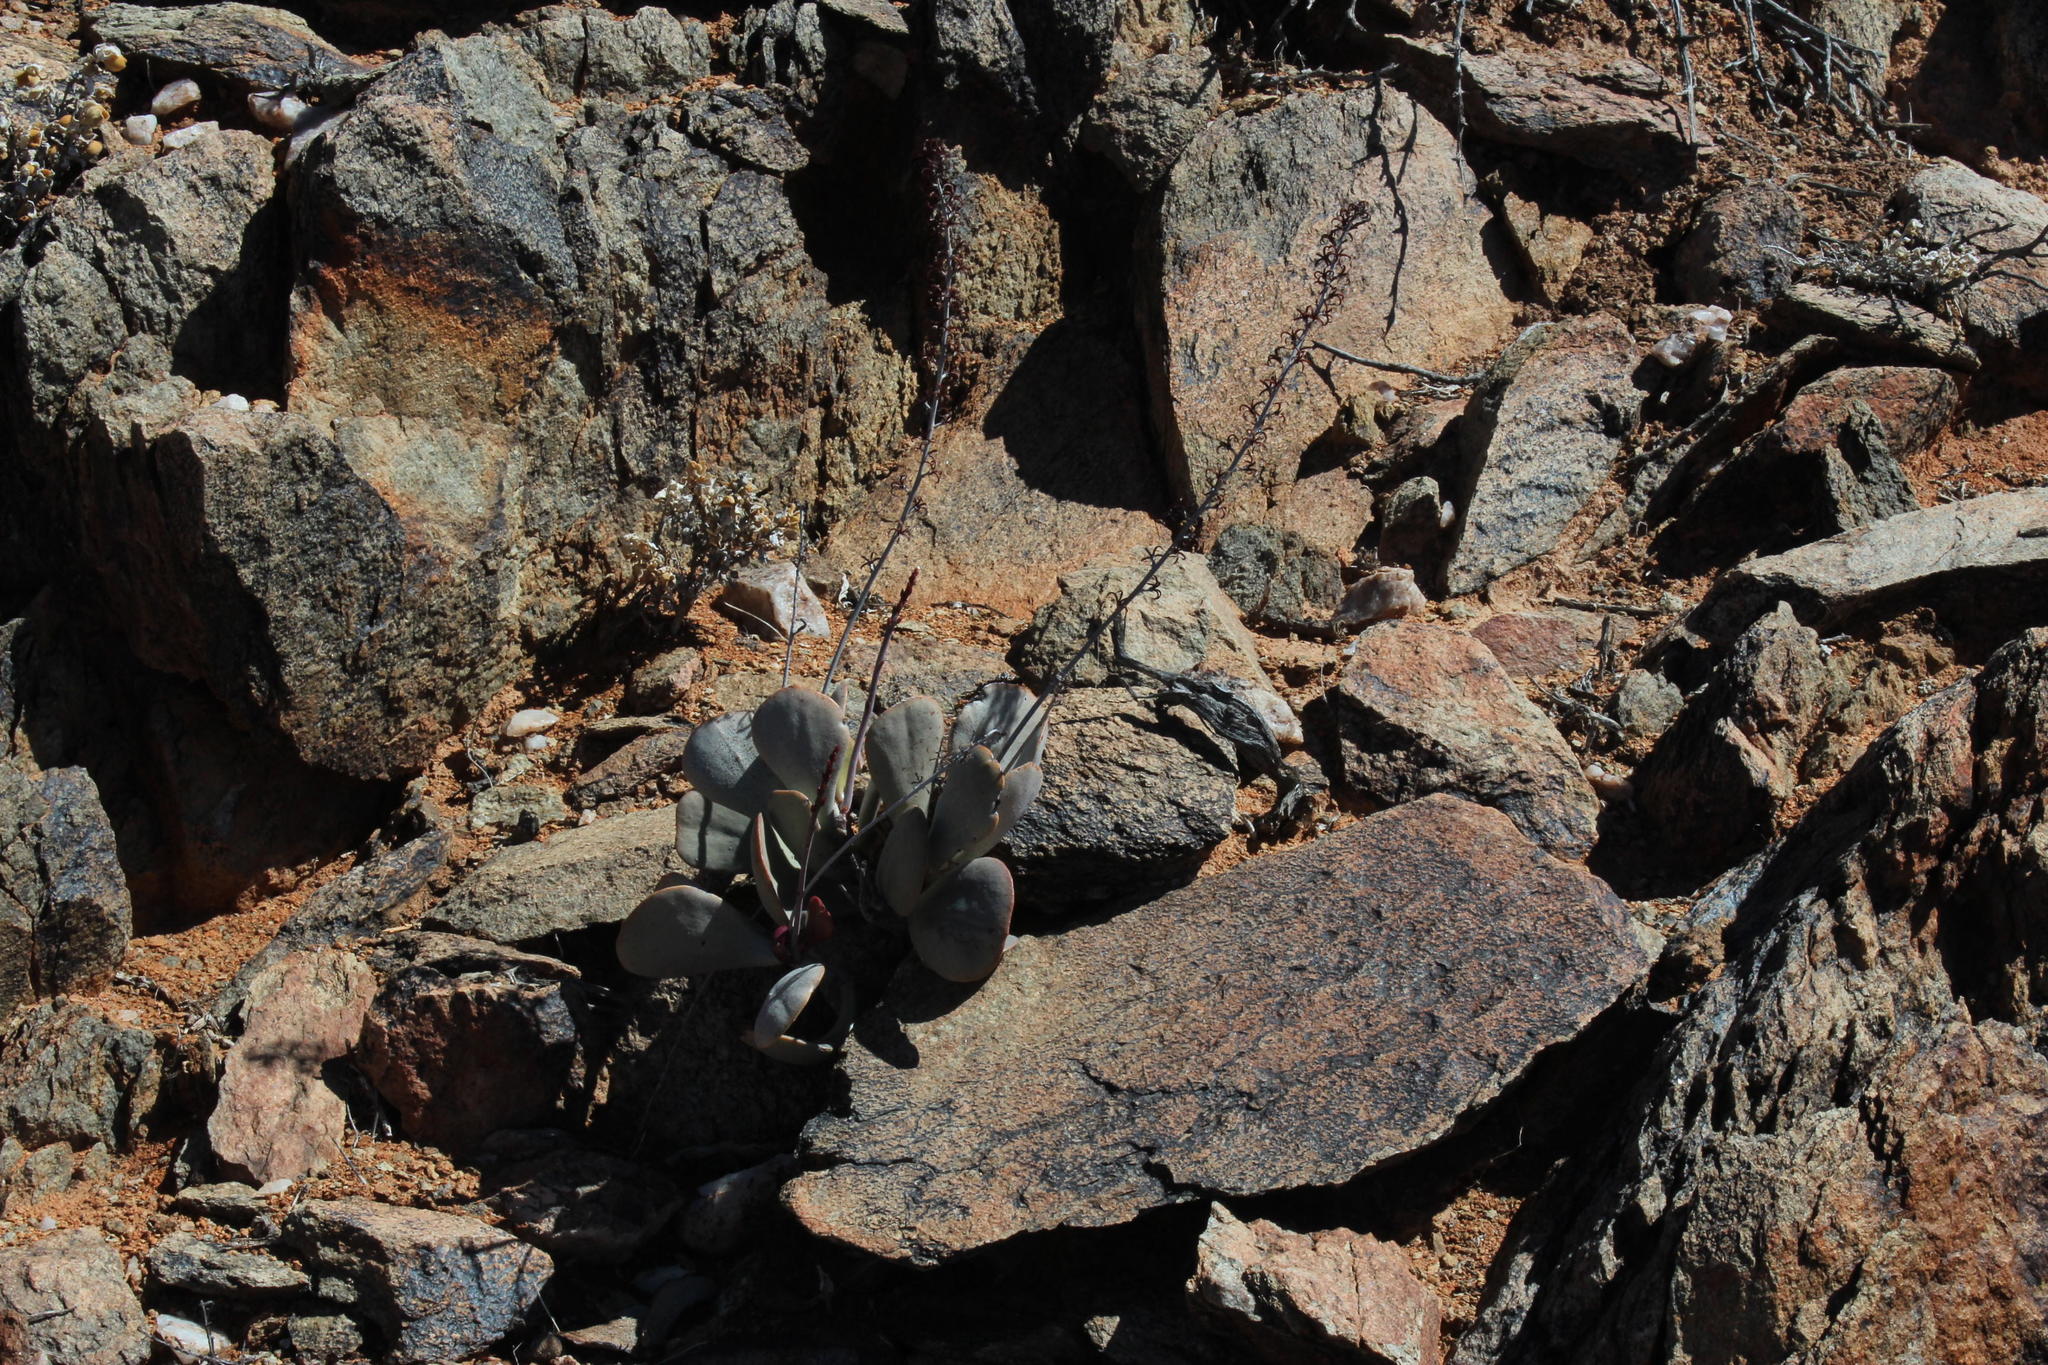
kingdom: Plantae
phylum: Tracheophyta
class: Magnoliopsida
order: Saxifragales
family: Crassulaceae
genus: Adromischus
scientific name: Adromischus alstonii
